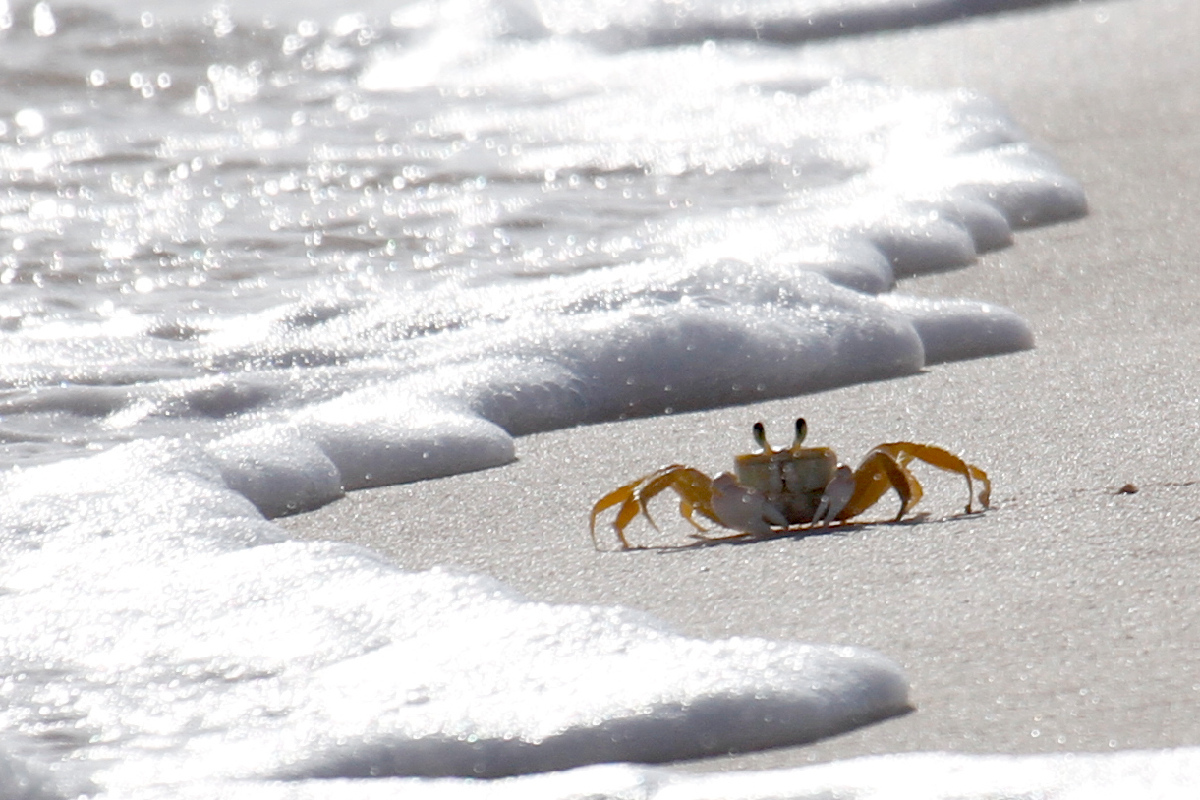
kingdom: Animalia
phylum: Arthropoda
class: Malacostraca
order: Decapoda
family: Ocypodidae
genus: Ocypode
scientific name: Ocypode quadrata
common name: Ghost crab
